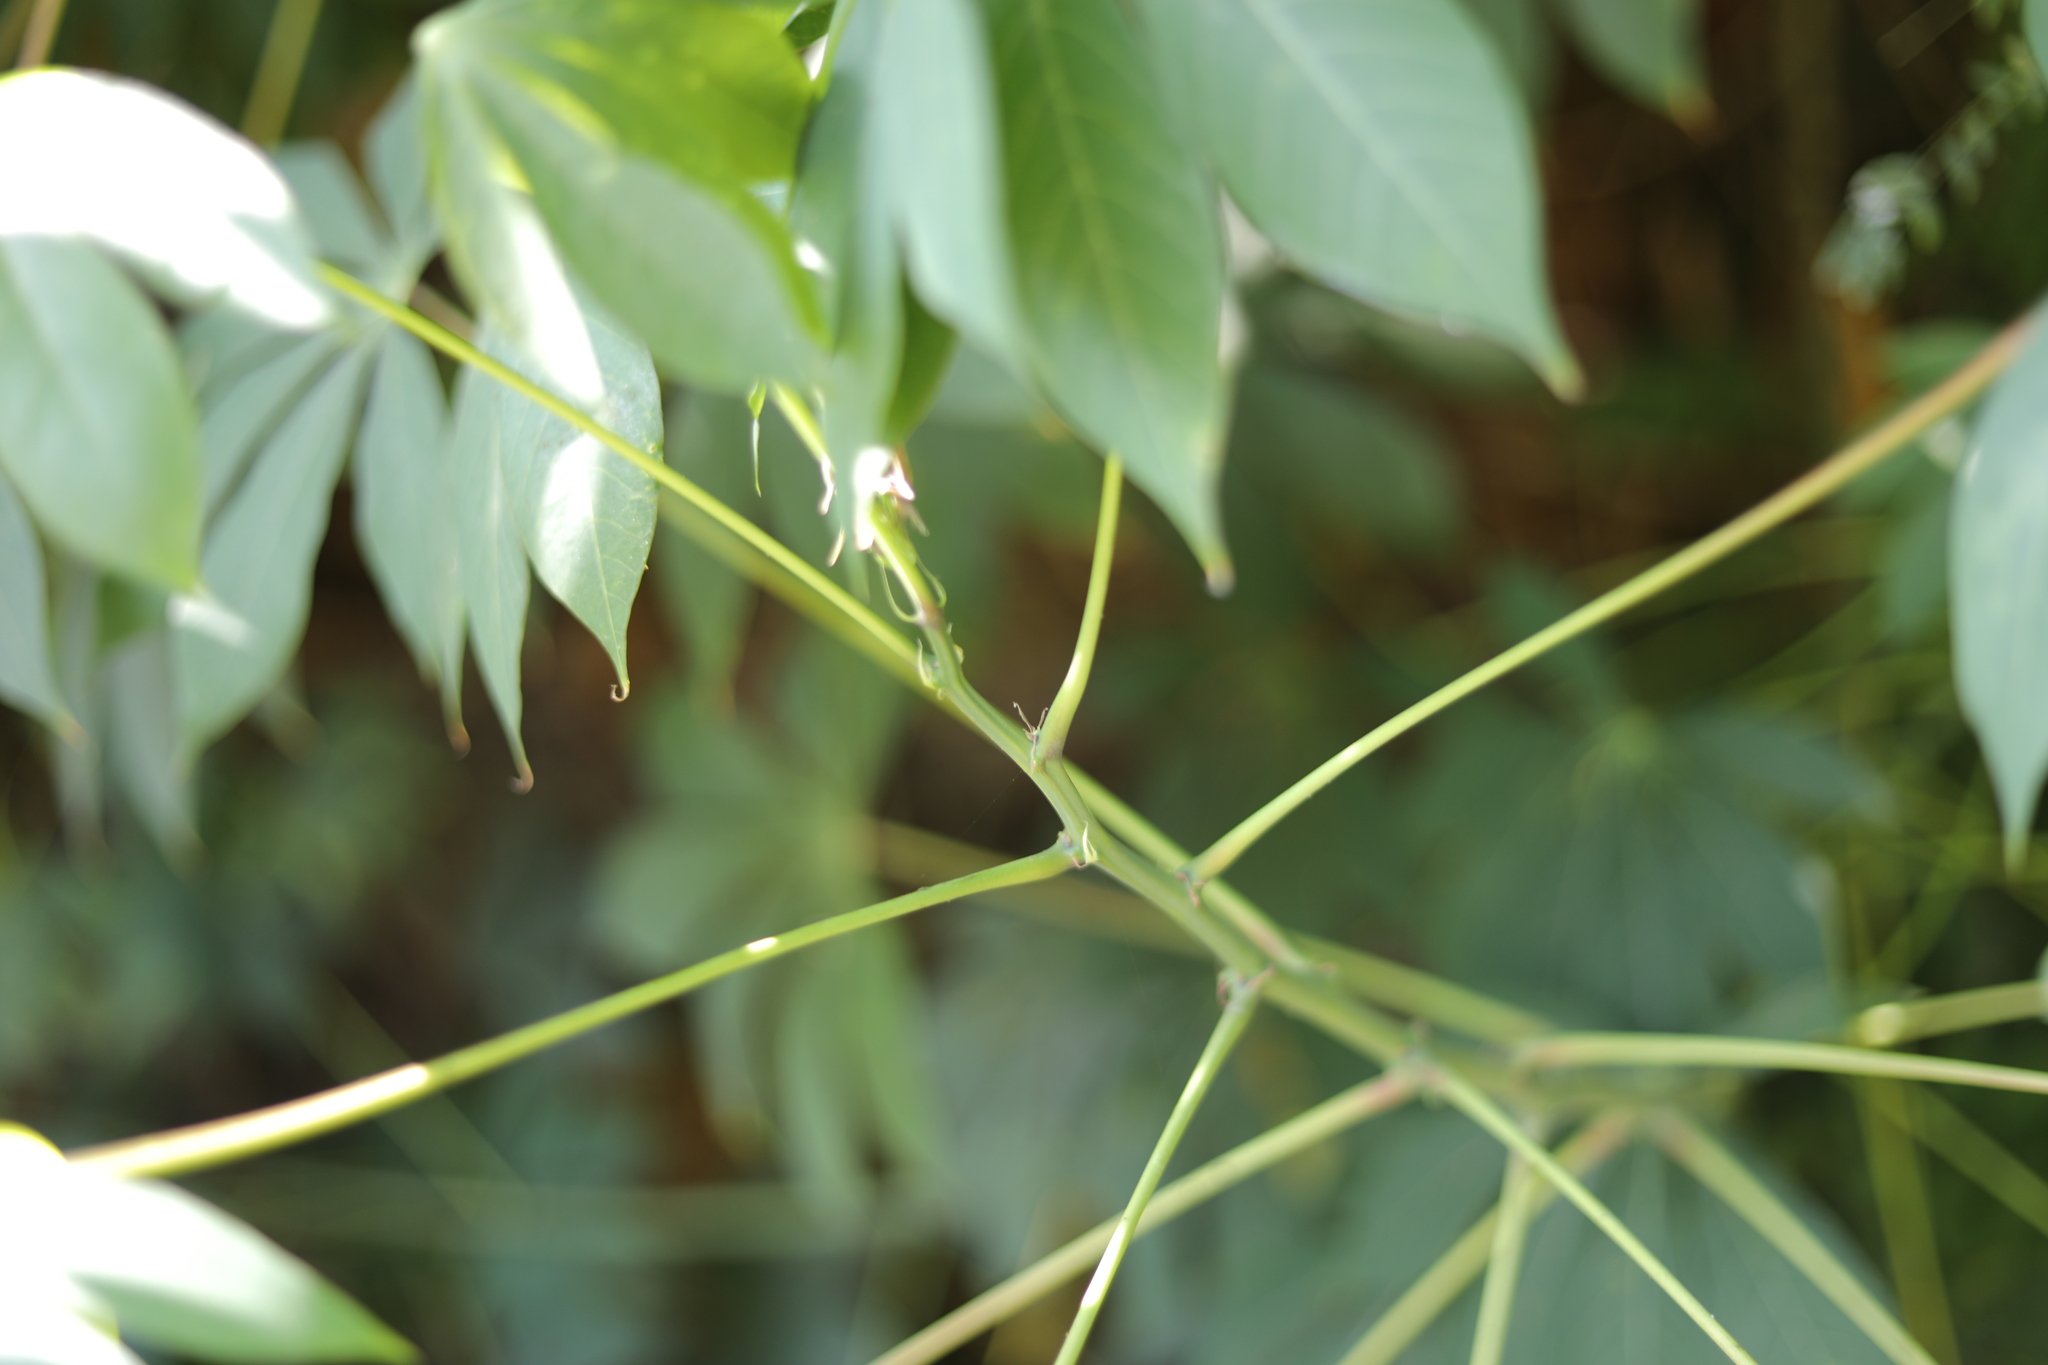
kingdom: Plantae
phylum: Tracheophyta
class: Magnoliopsida
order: Malpighiales
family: Euphorbiaceae
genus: Manihot
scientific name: Manihot esculenta
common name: Cassava
